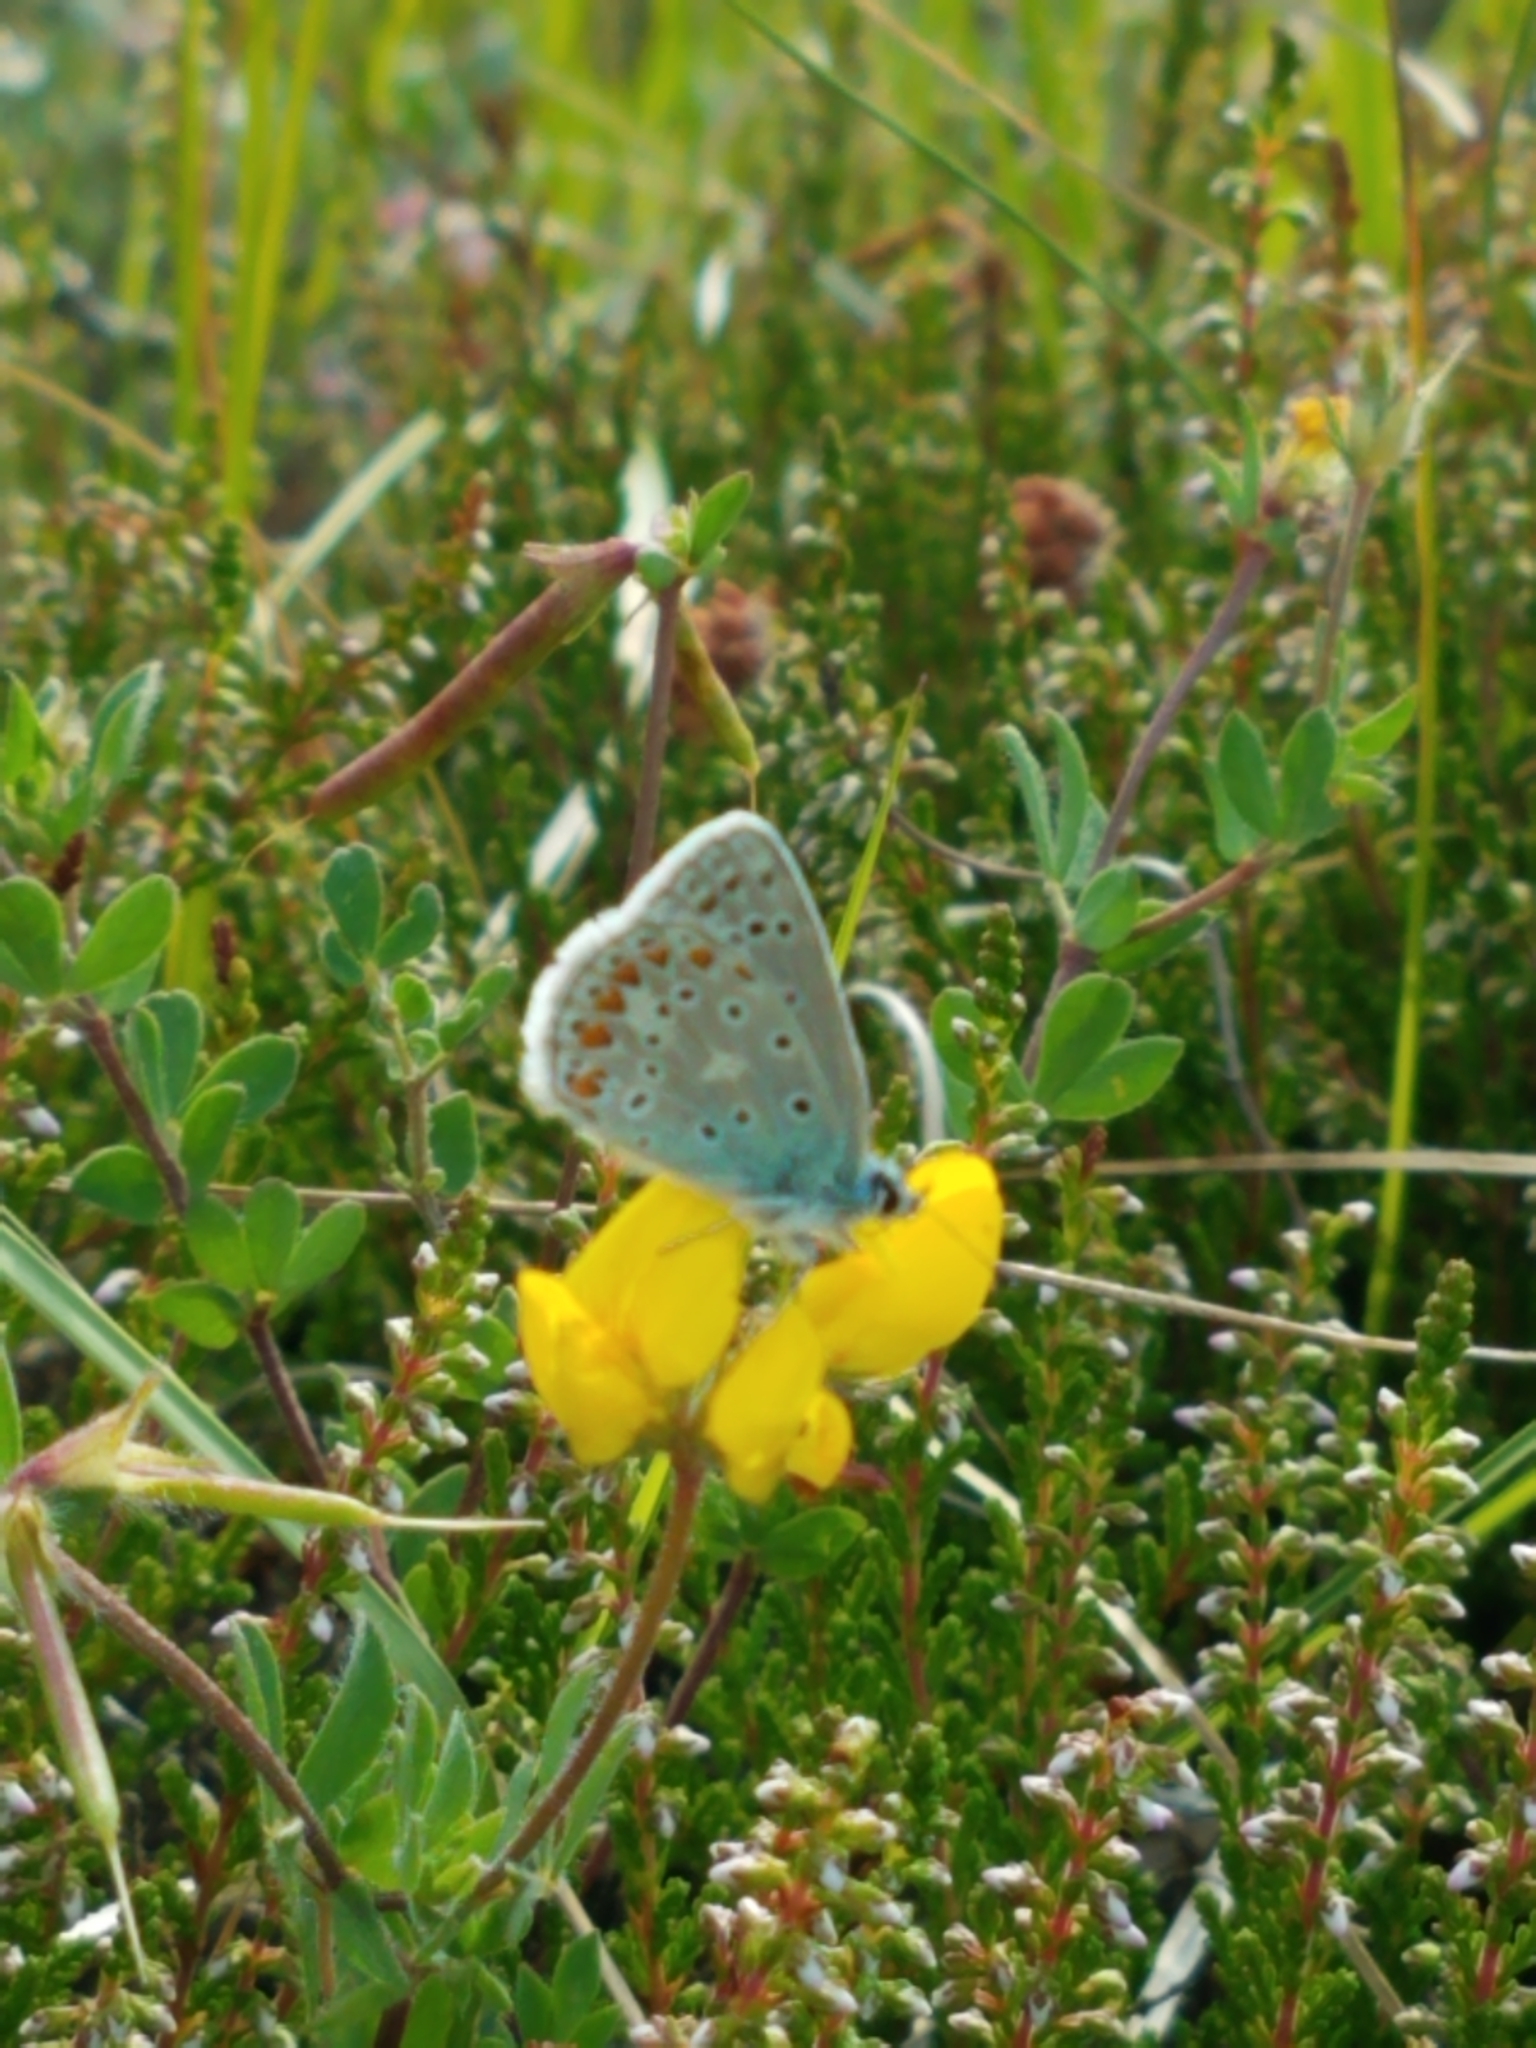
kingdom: Animalia
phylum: Arthropoda
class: Insecta
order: Lepidoptera
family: Lycaenidae
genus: Polyommatus
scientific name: Polyommatus icarus
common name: Common blue
